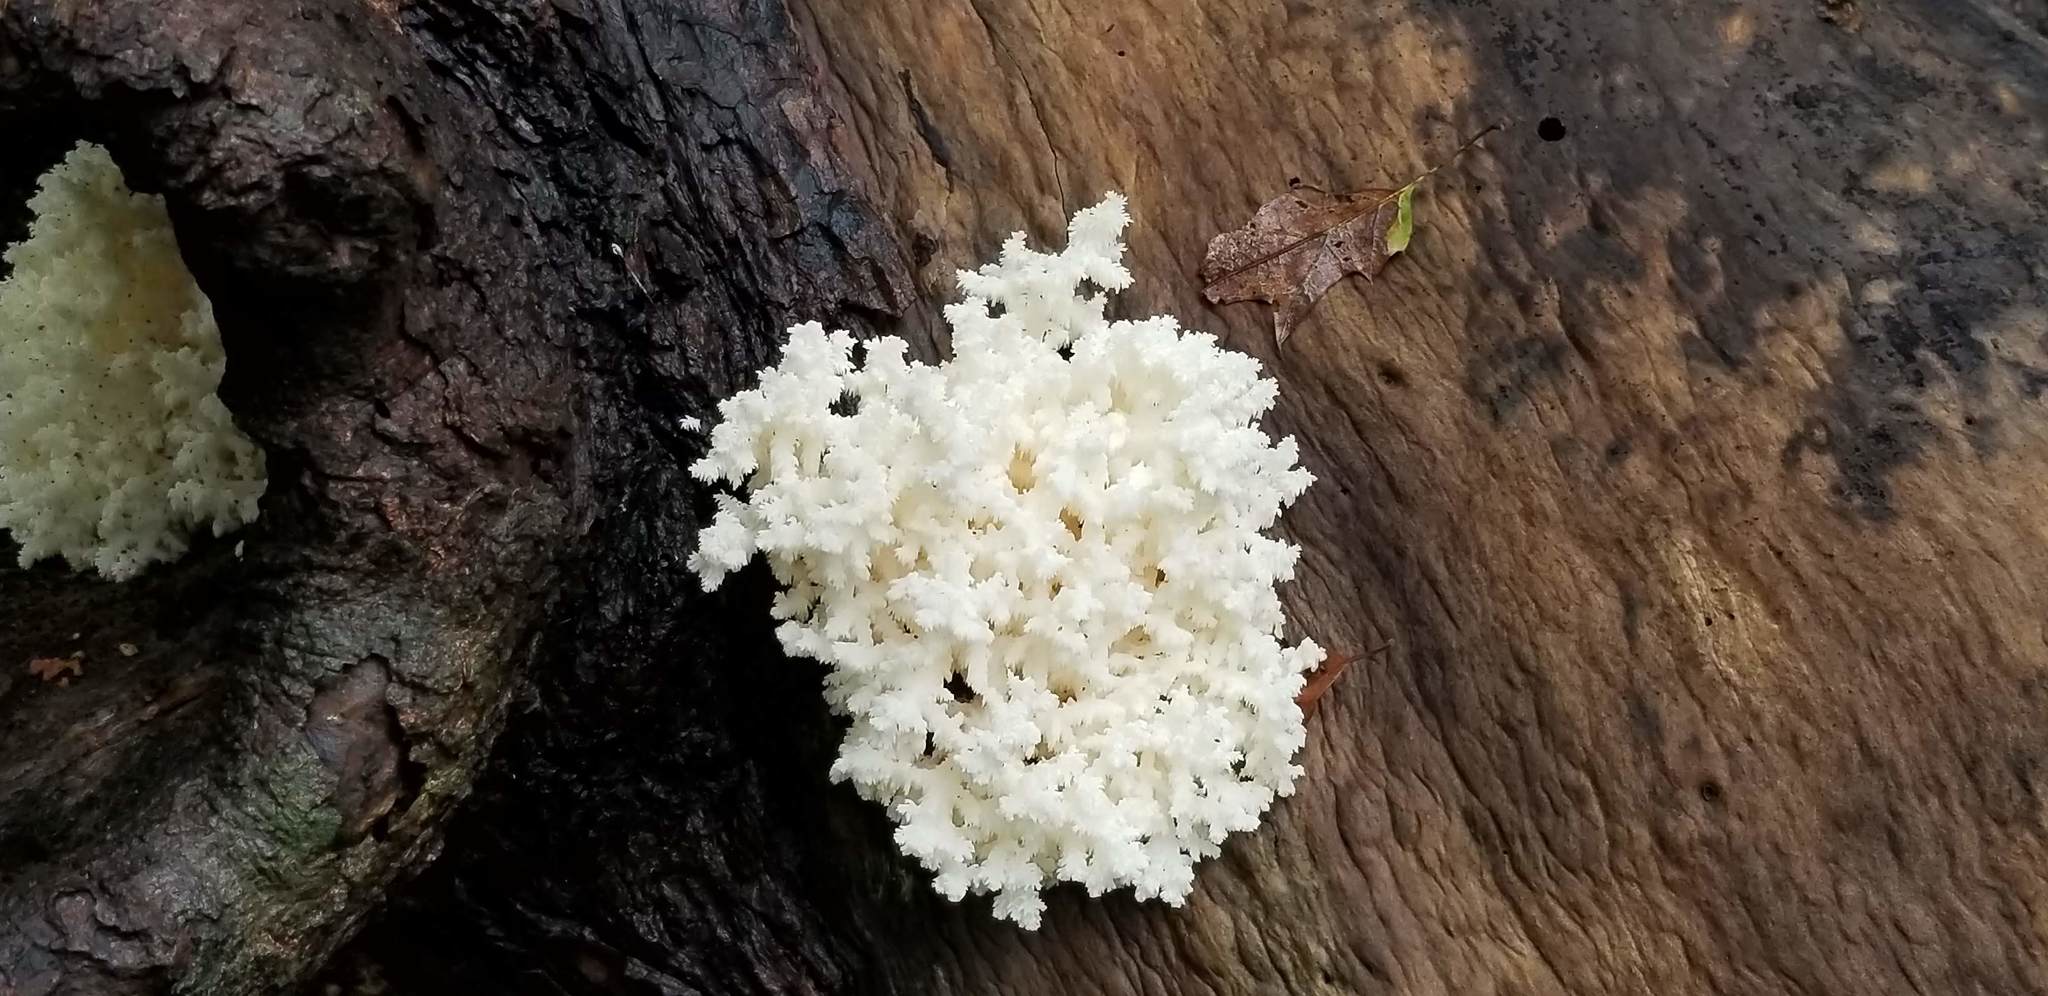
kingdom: Fungi
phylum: Basidiomycota
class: Agaricomycetes
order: Russulales
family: Hericiaceae
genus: Hericium
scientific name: Hericium coralloides
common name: Coral tooth
